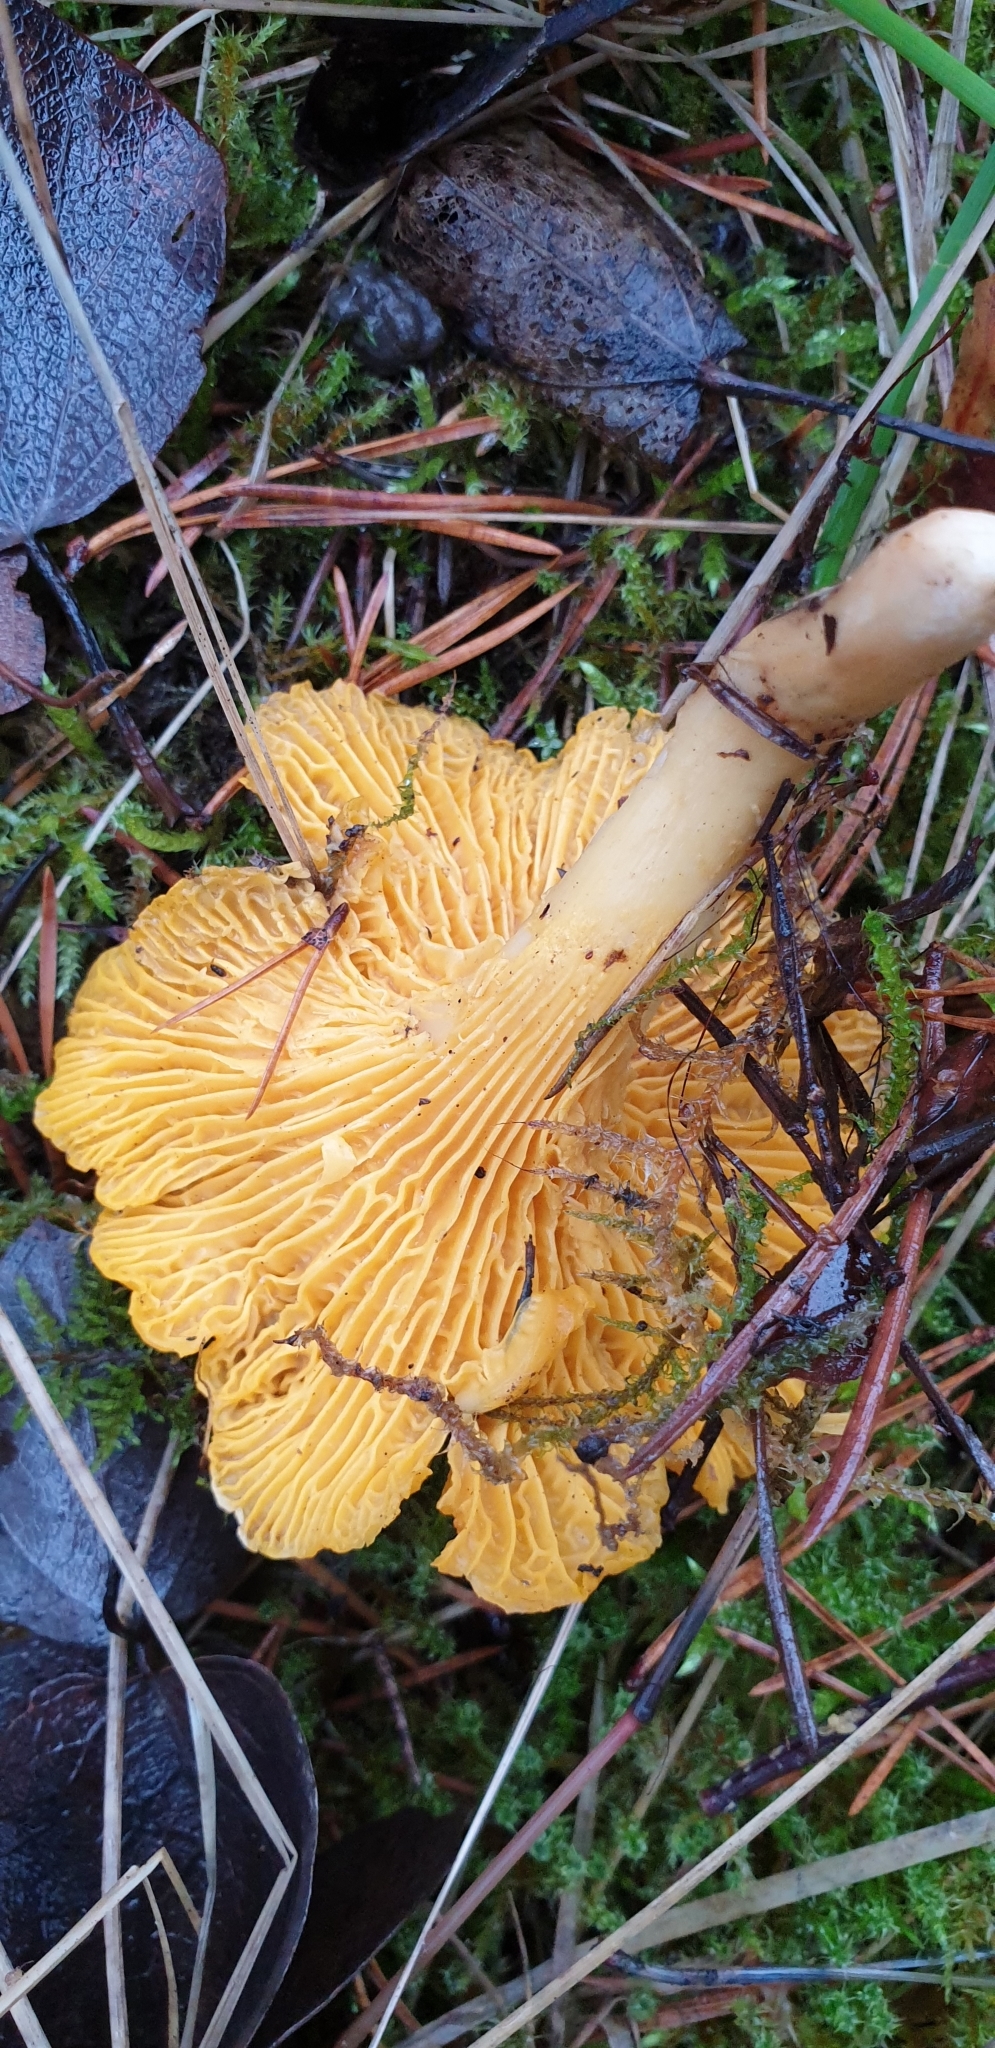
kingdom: Fungi
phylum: Basidiomycota
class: Agaricomycetes
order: Cantharellales
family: Hydnaceae
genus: Cantharellus
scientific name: Cantharellus cibarius
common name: Chanterelle
